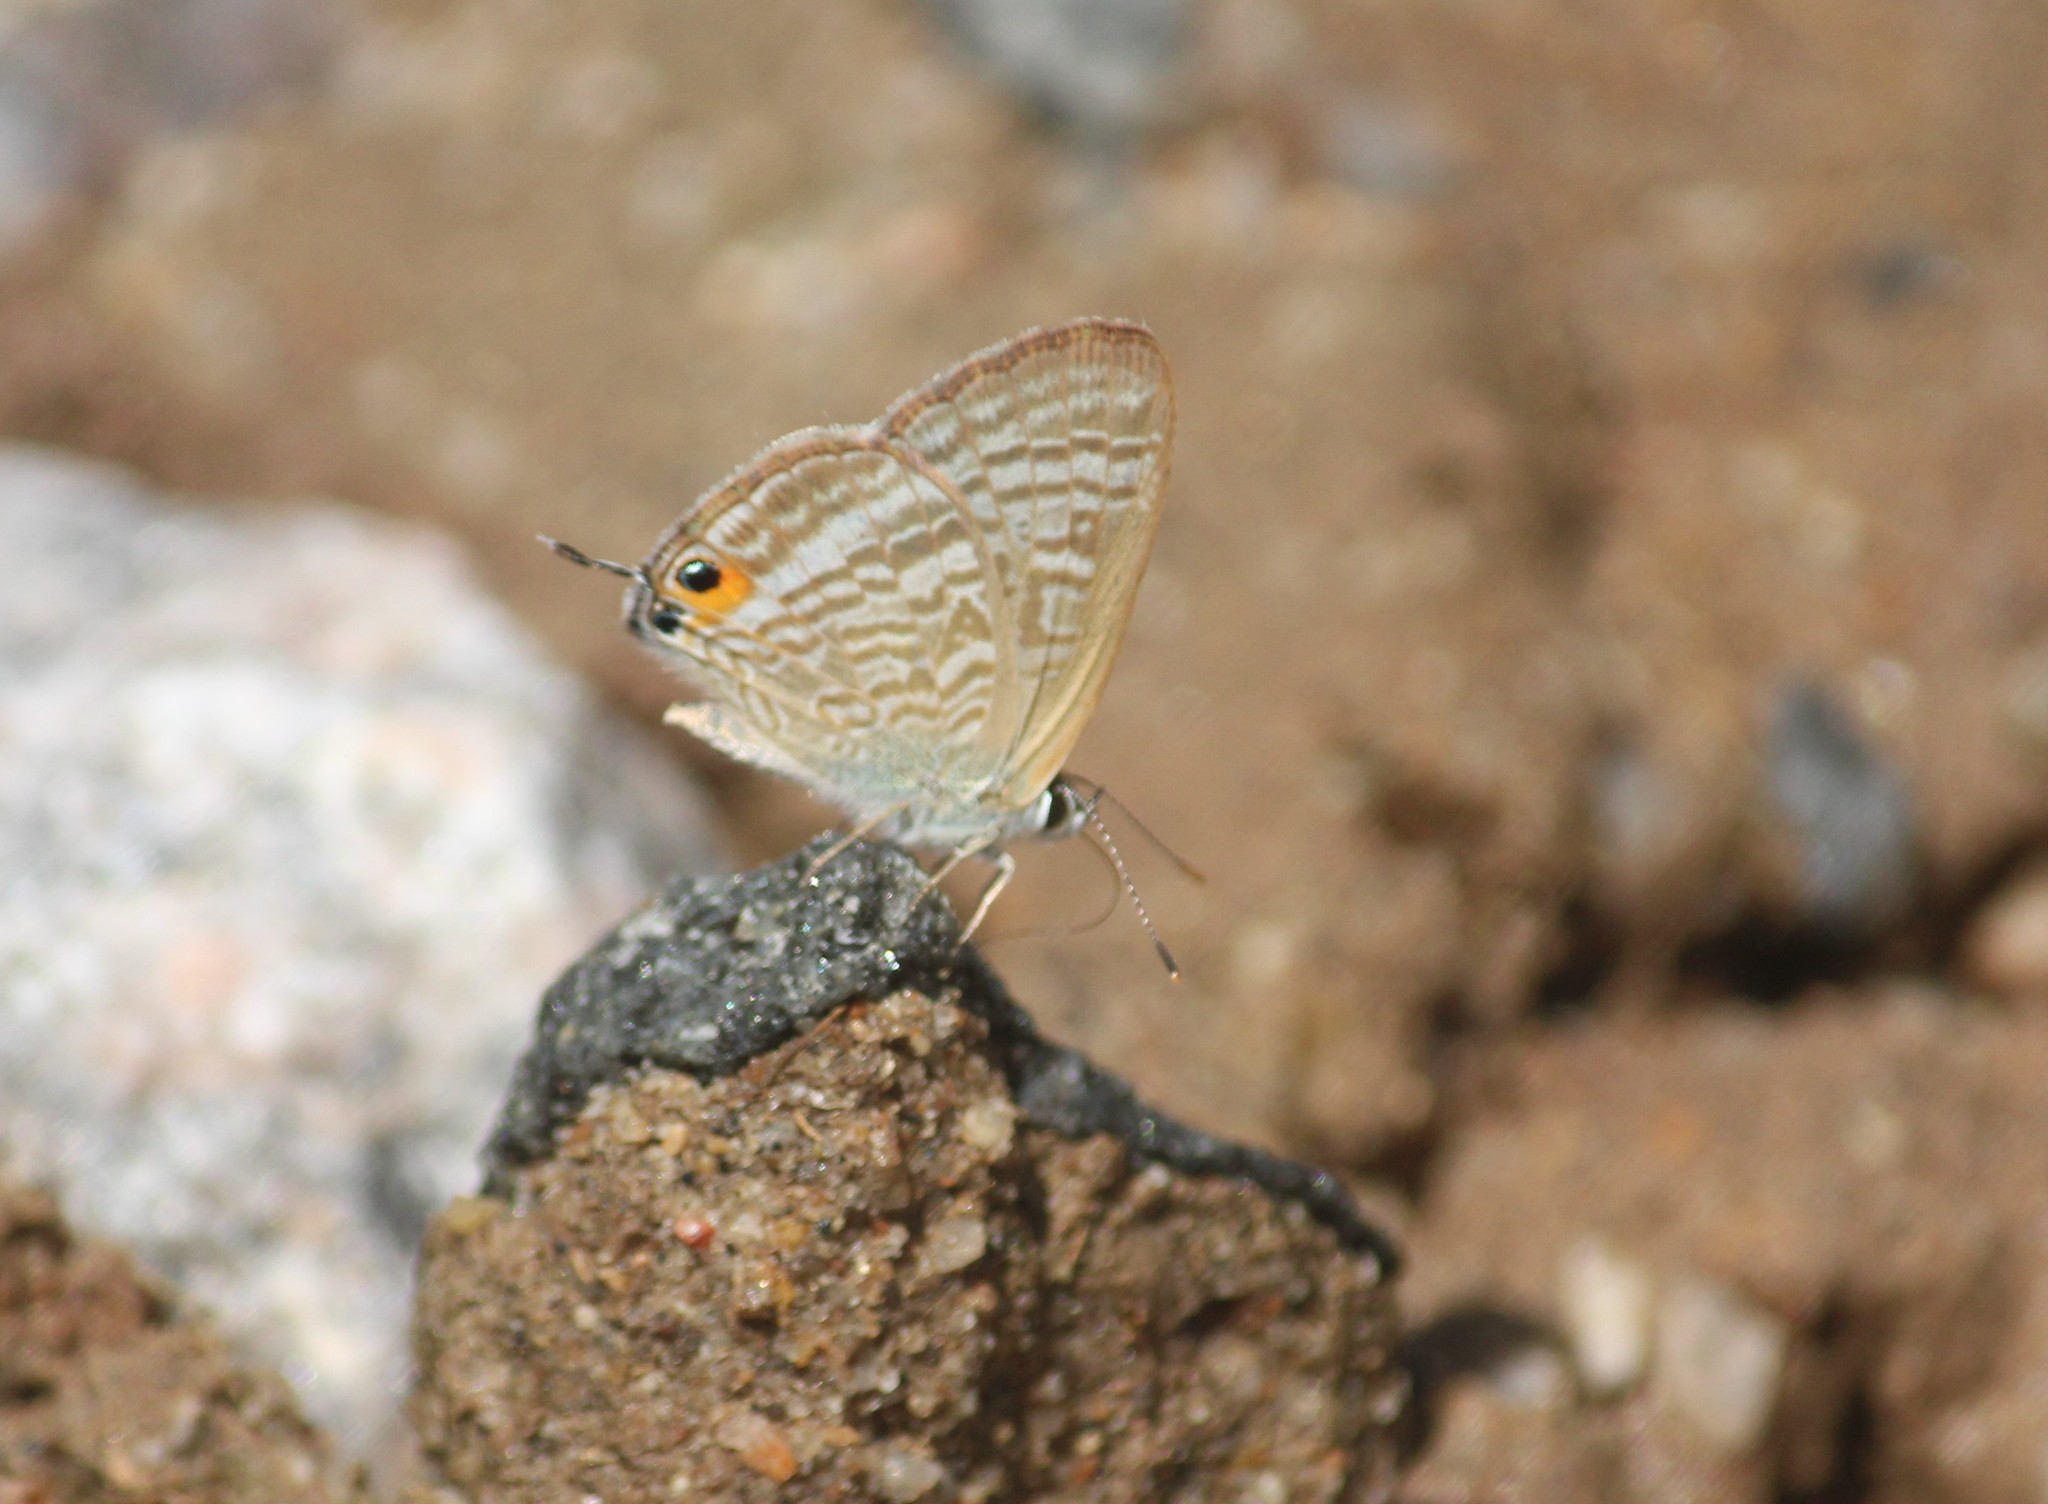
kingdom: Animalia
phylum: Arthropoda
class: Insecta
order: Lepidoptera
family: Lycaenidae
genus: Lampides
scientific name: Lampides boeticus
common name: Long-tailed blue
